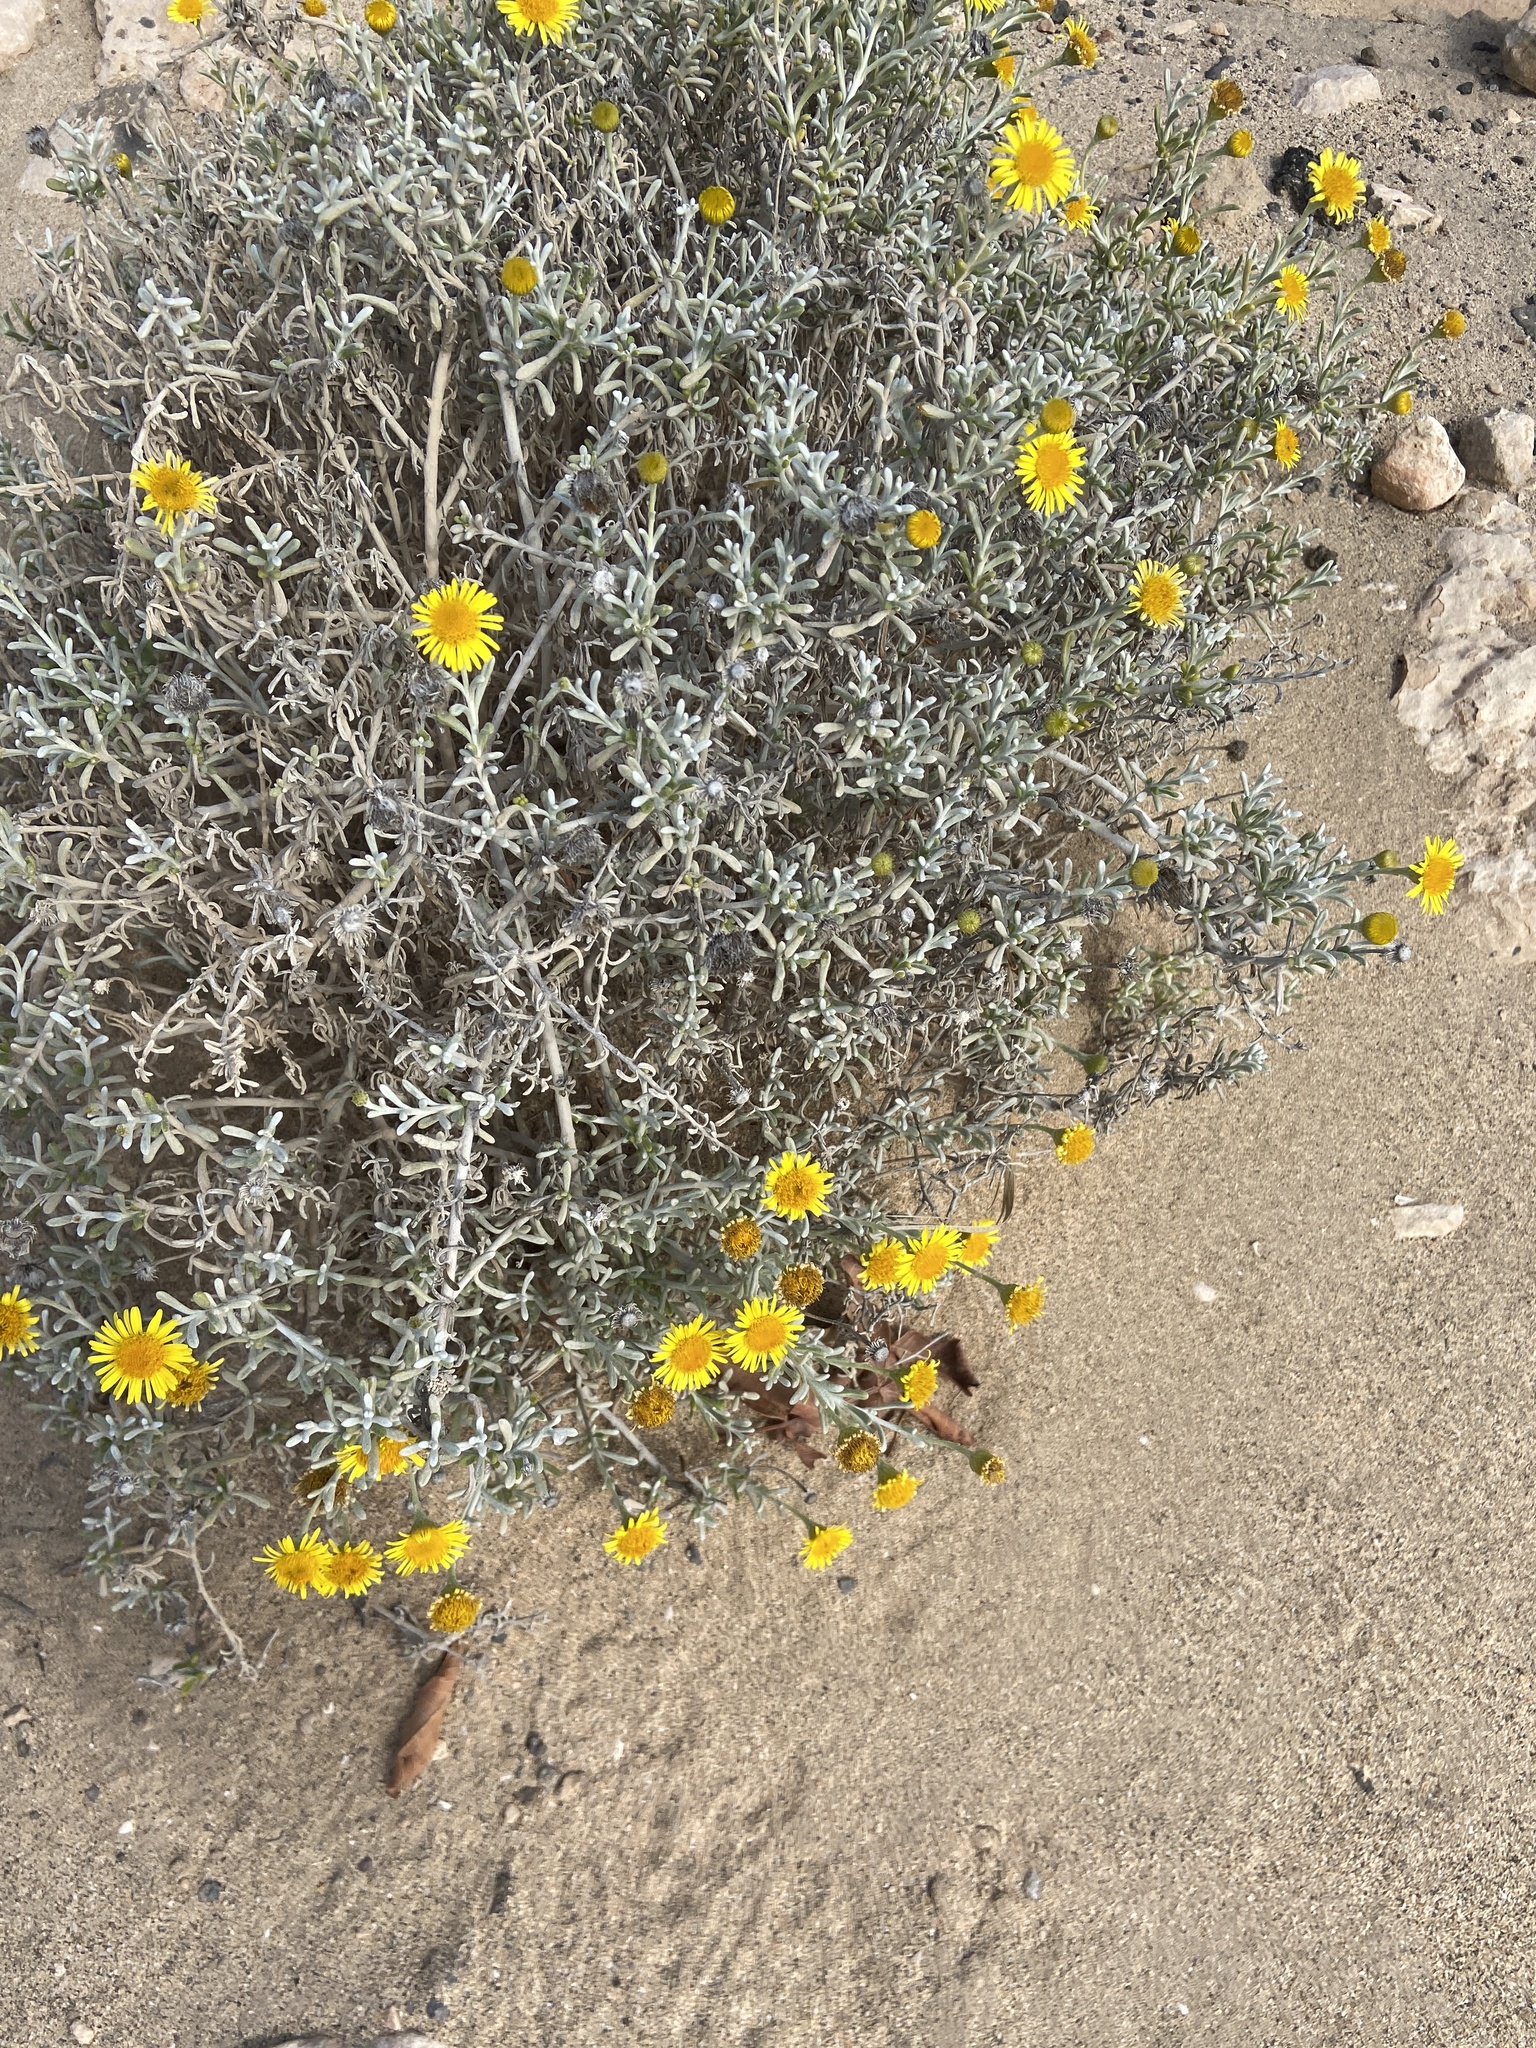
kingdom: Plantae
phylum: Tracheophyta
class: Magnoliopsida
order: Asterales
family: Asteraceae
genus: Pulicaria
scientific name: Pulicaria burchardii
